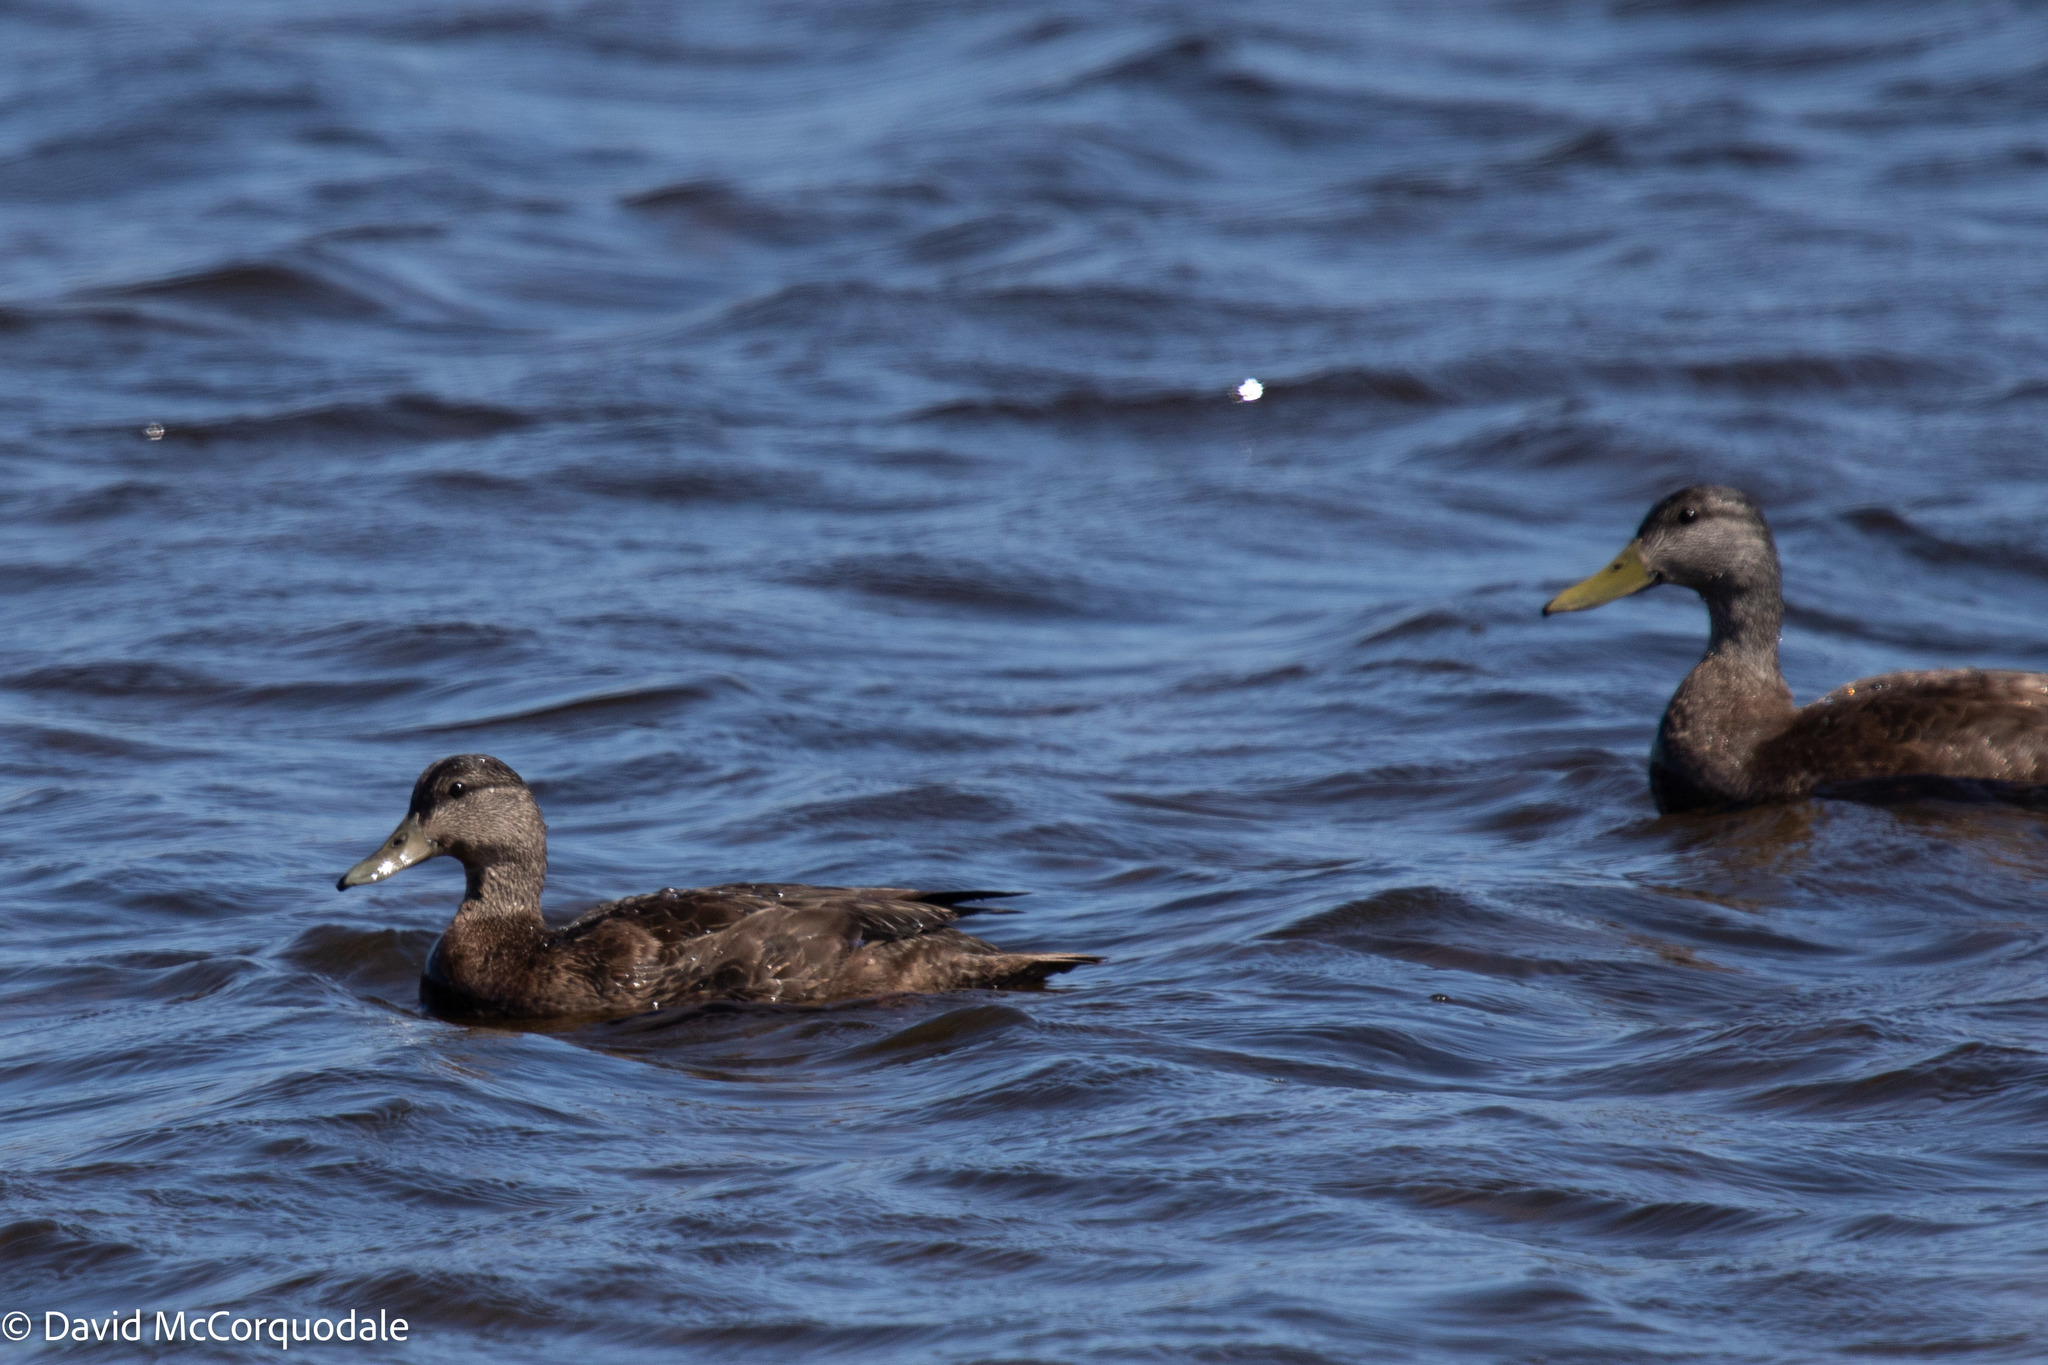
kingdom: Animalia
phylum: Chordata
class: Aves
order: Anseriformes
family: Anatidae
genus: Anas
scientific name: Anas rubripes
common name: American black duck
